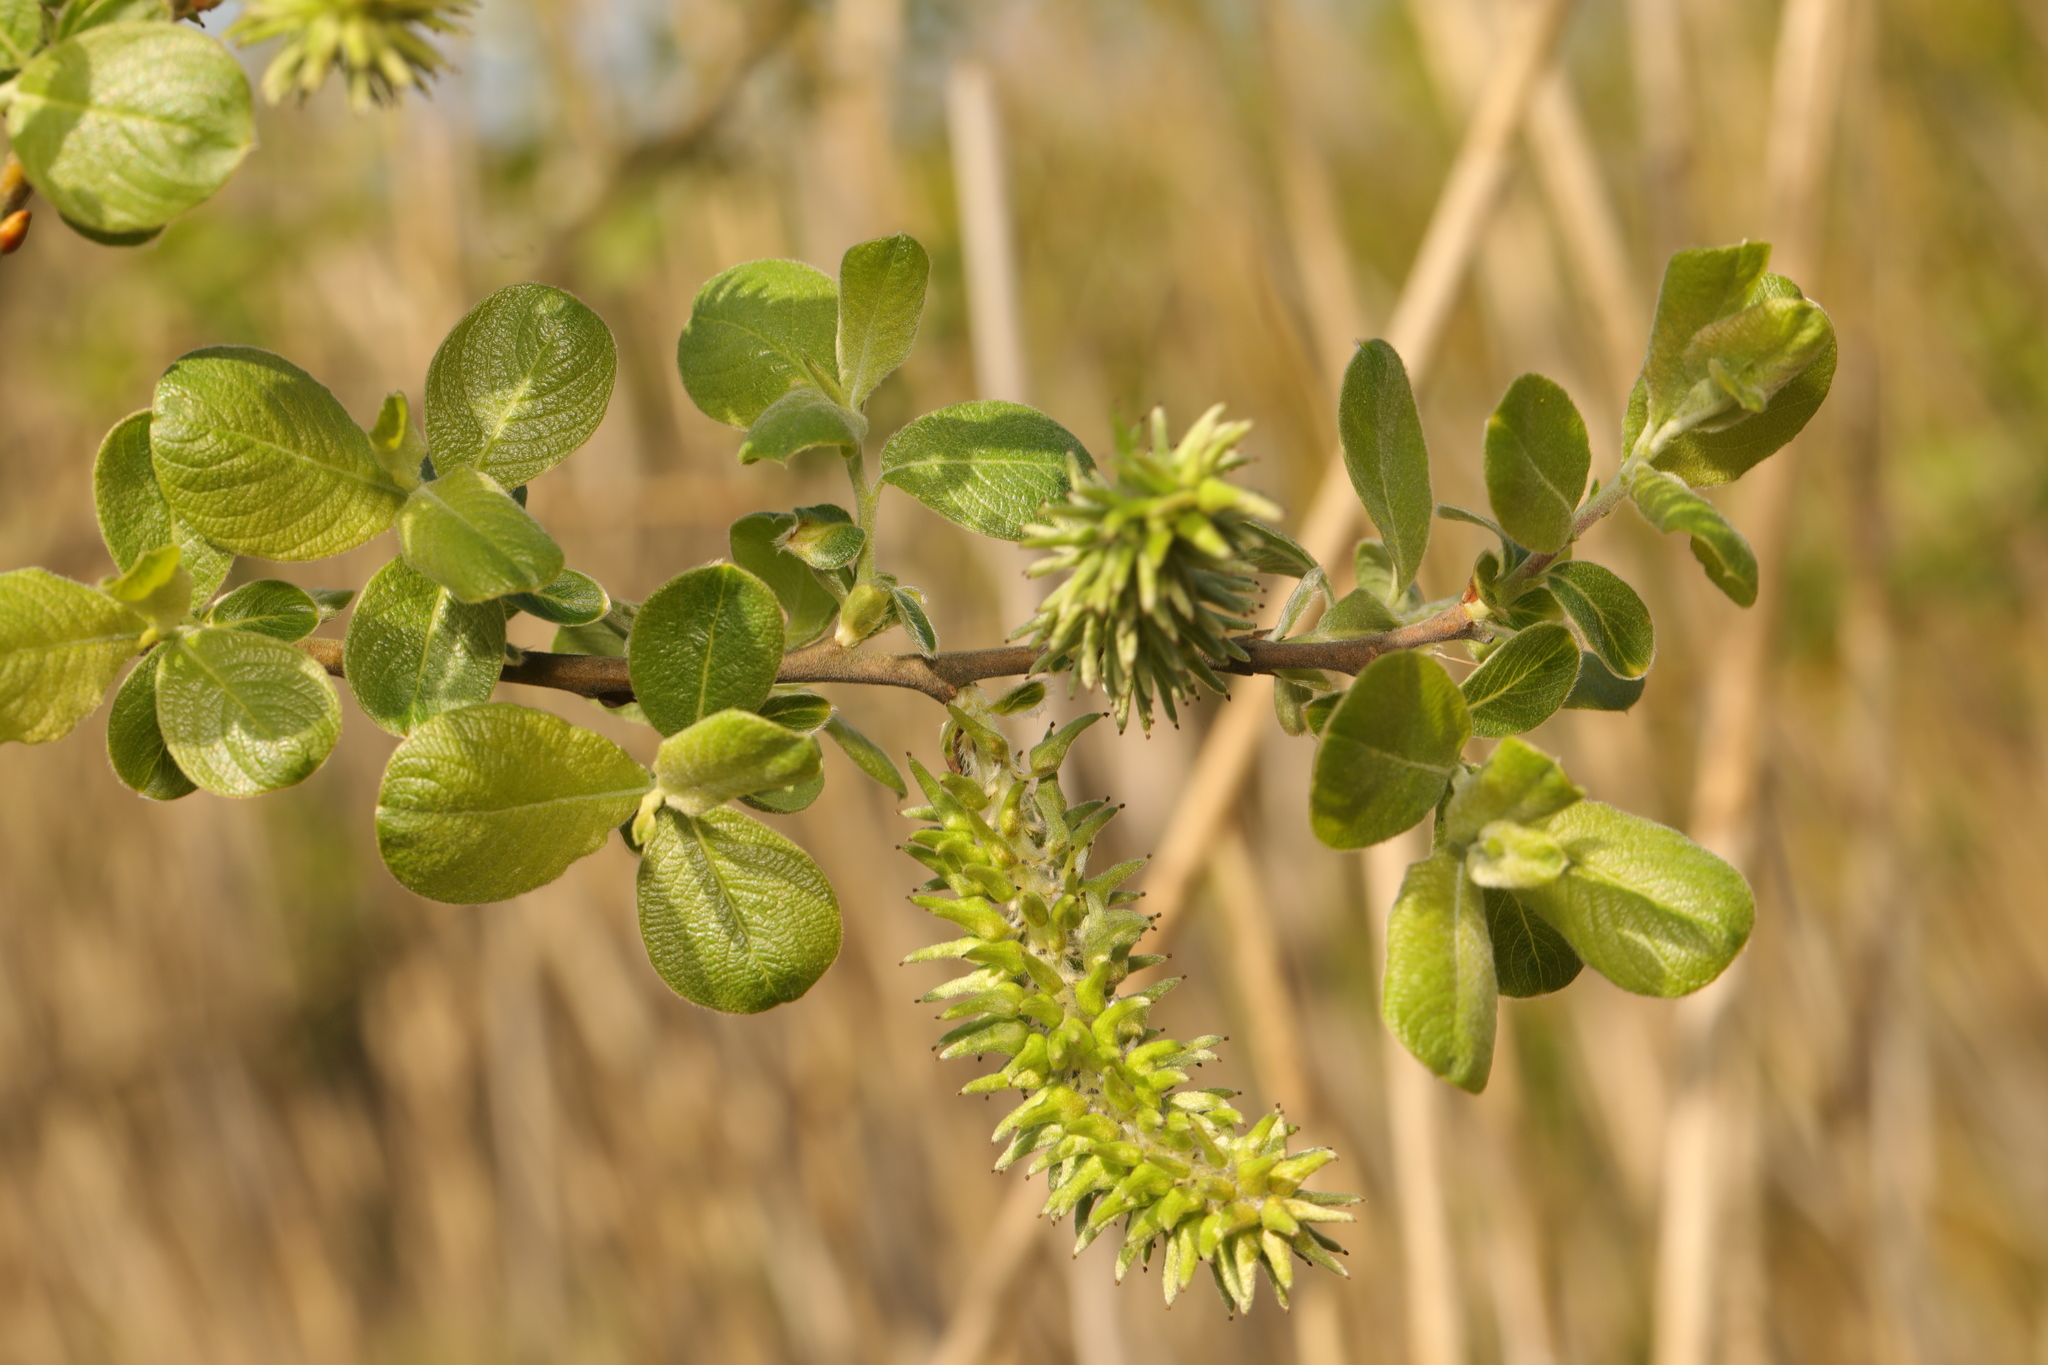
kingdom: Plantae
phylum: Tracheophyta
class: Magnoliopsida
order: Malpighiales
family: Salicaceae
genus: Salix
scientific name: Salix cinerea
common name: Common sallow
